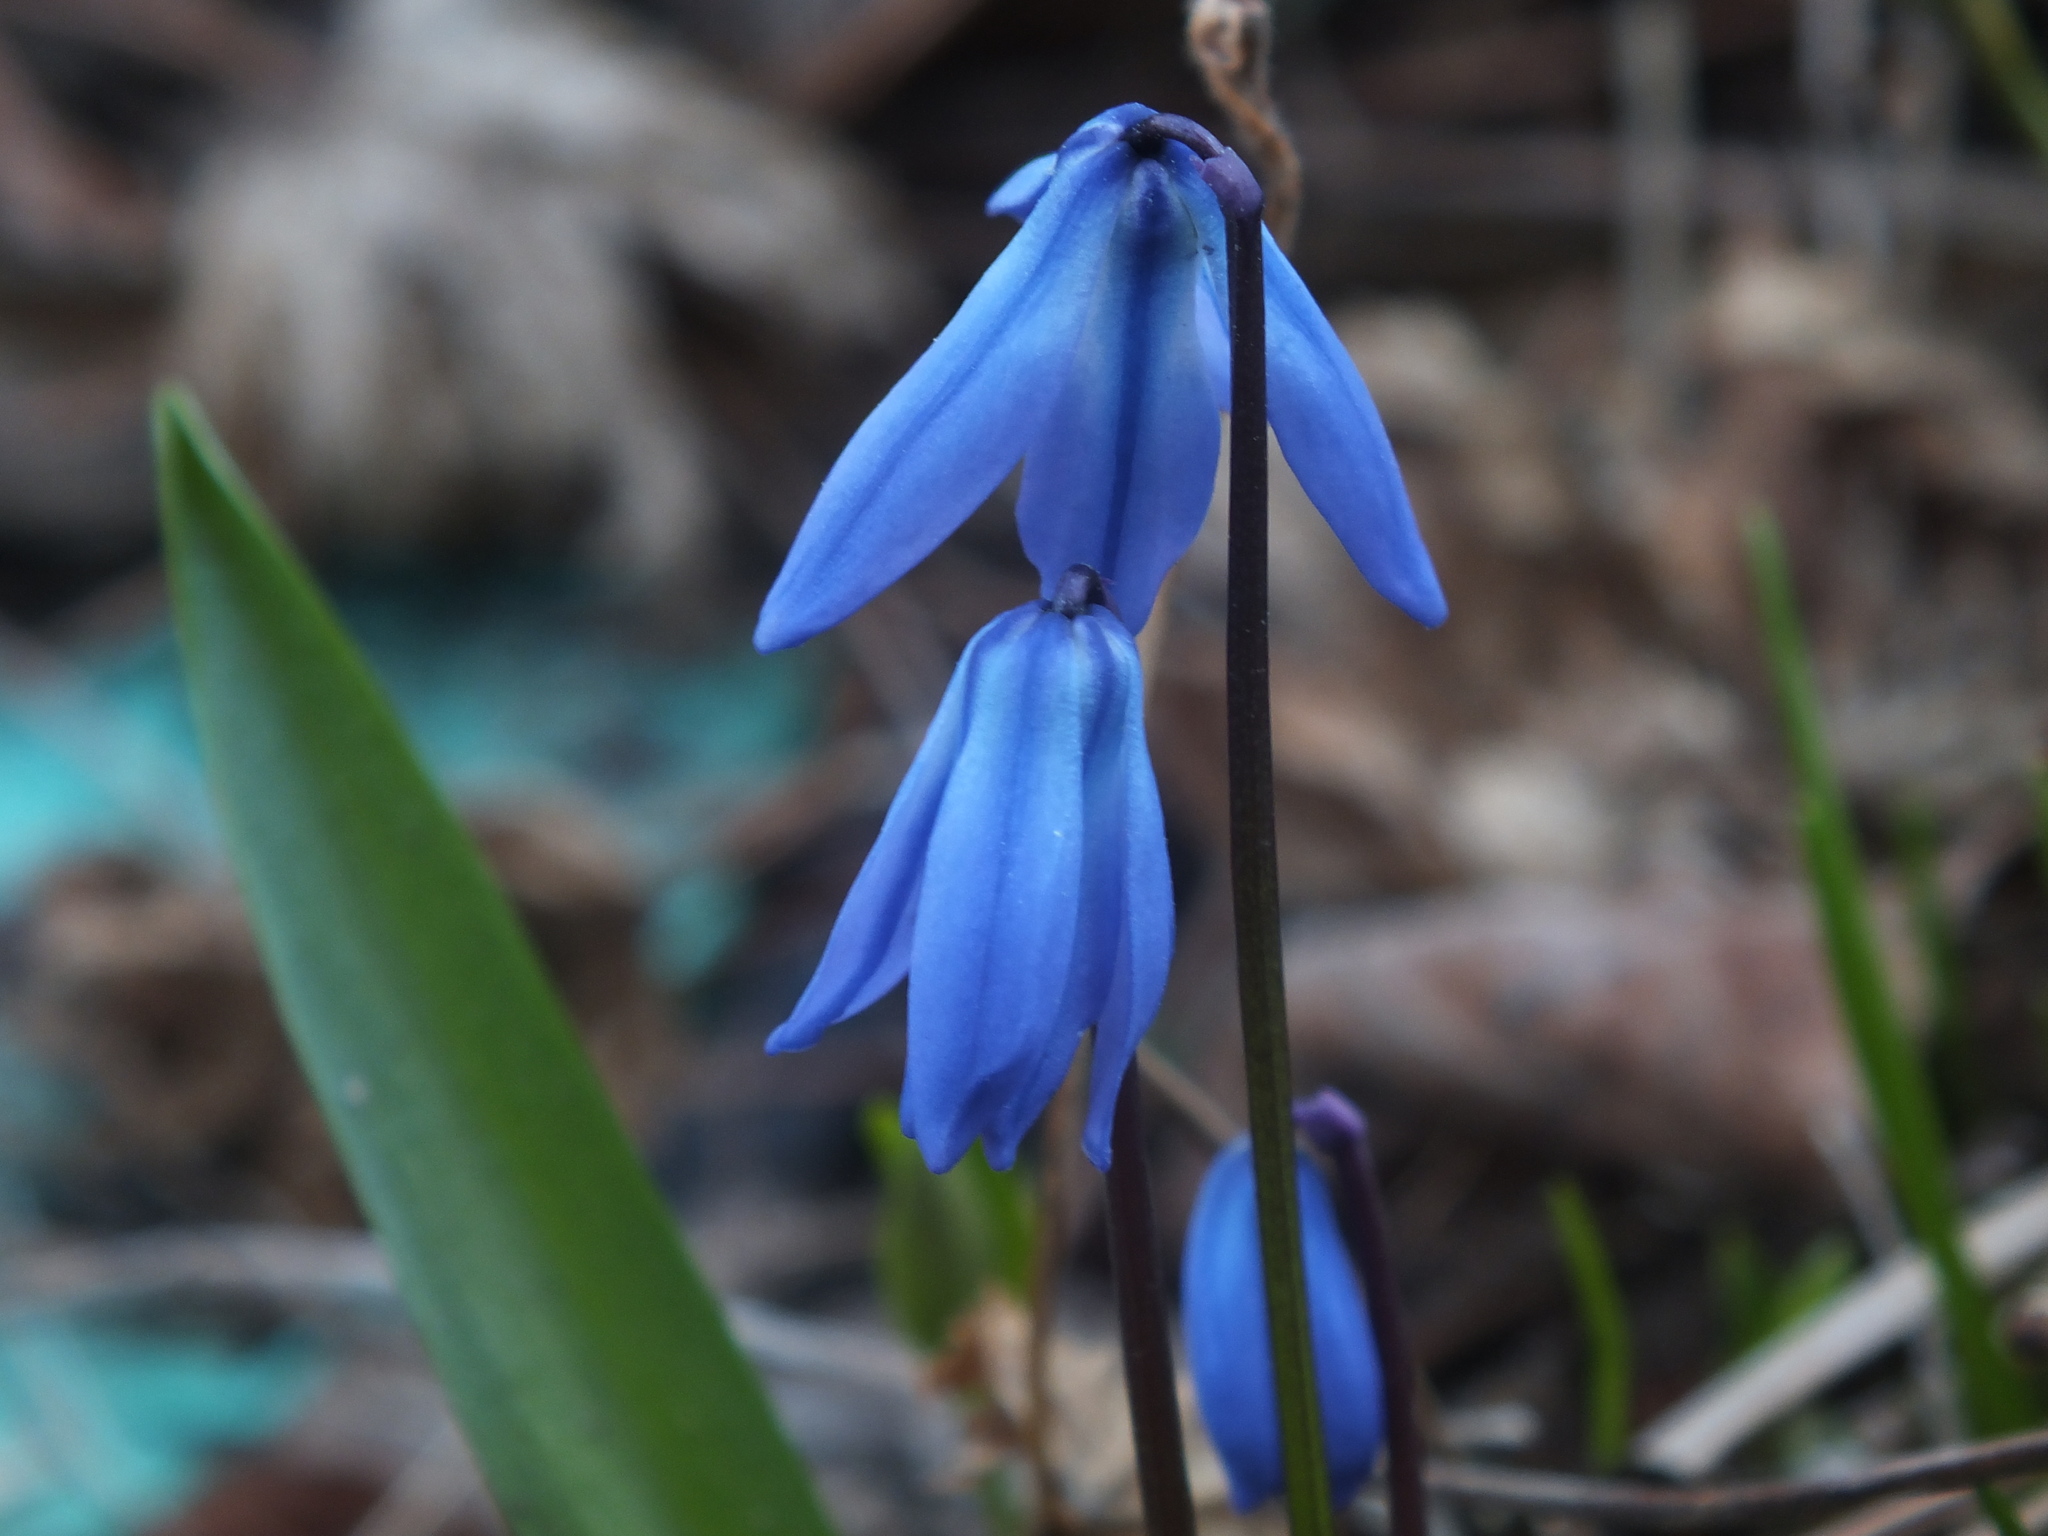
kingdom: Plantae
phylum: Tracheophyta
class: Liliopsida
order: Asparagales
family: Asparagaceae
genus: Scilla
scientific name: Scilla siberica
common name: Siberian squill
